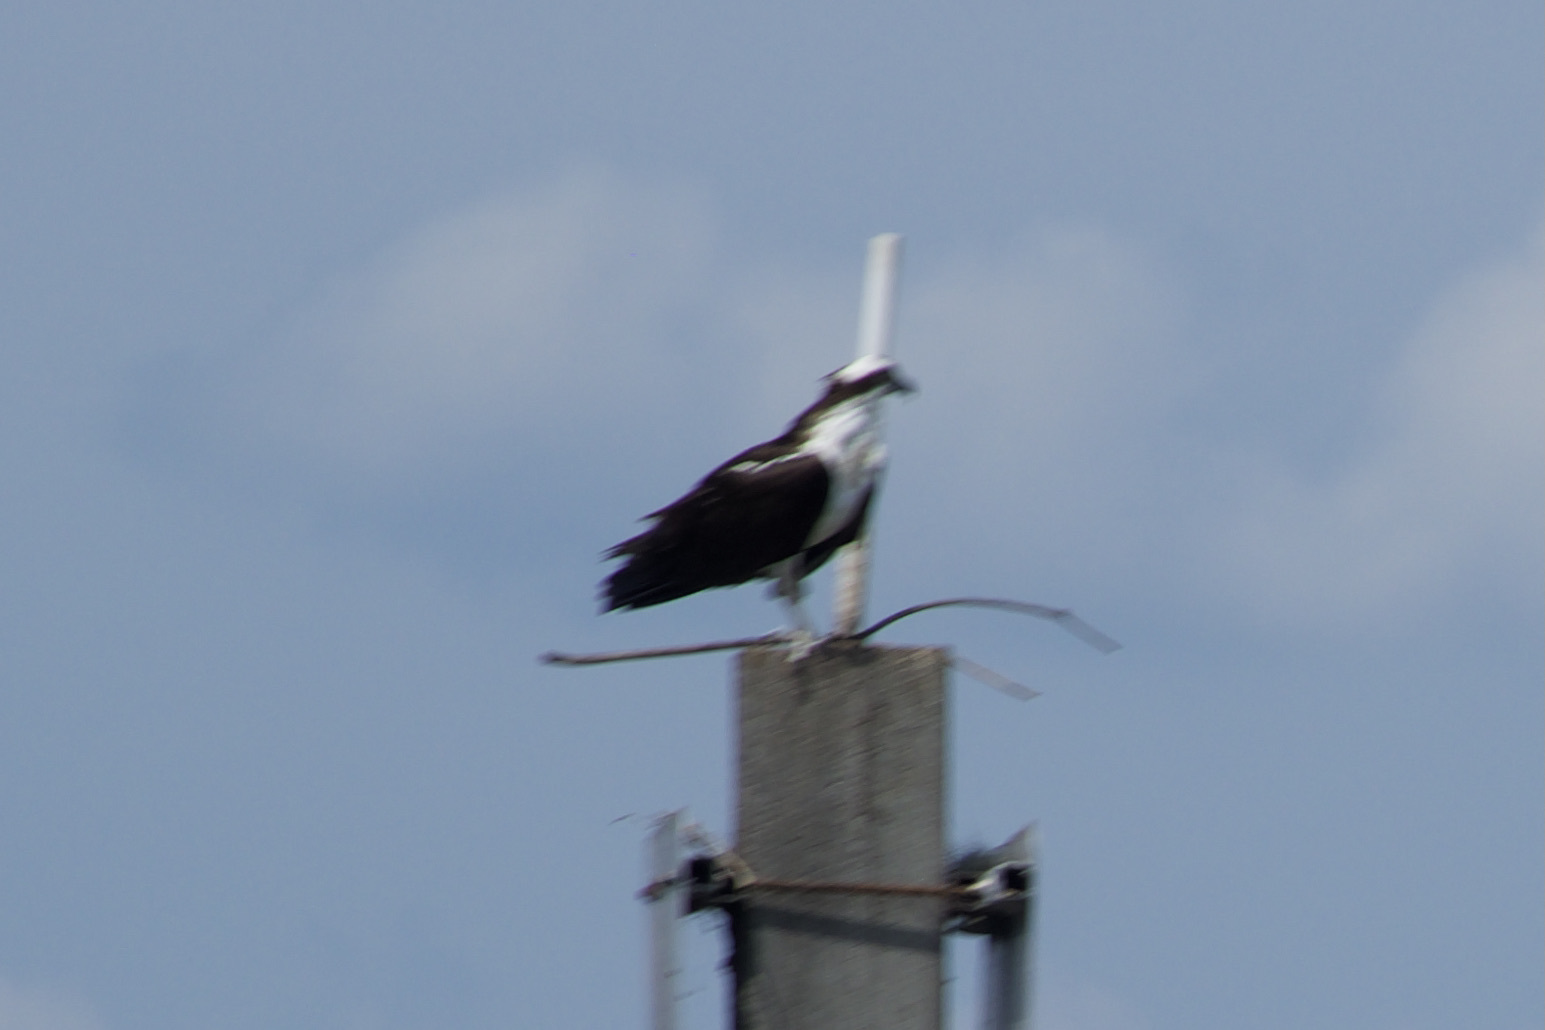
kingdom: Animalia
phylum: Chordata
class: Aves
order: Accipitriformes
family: Pandionidae
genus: Pandion
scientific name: Pandion haliaetus
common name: Osprey
